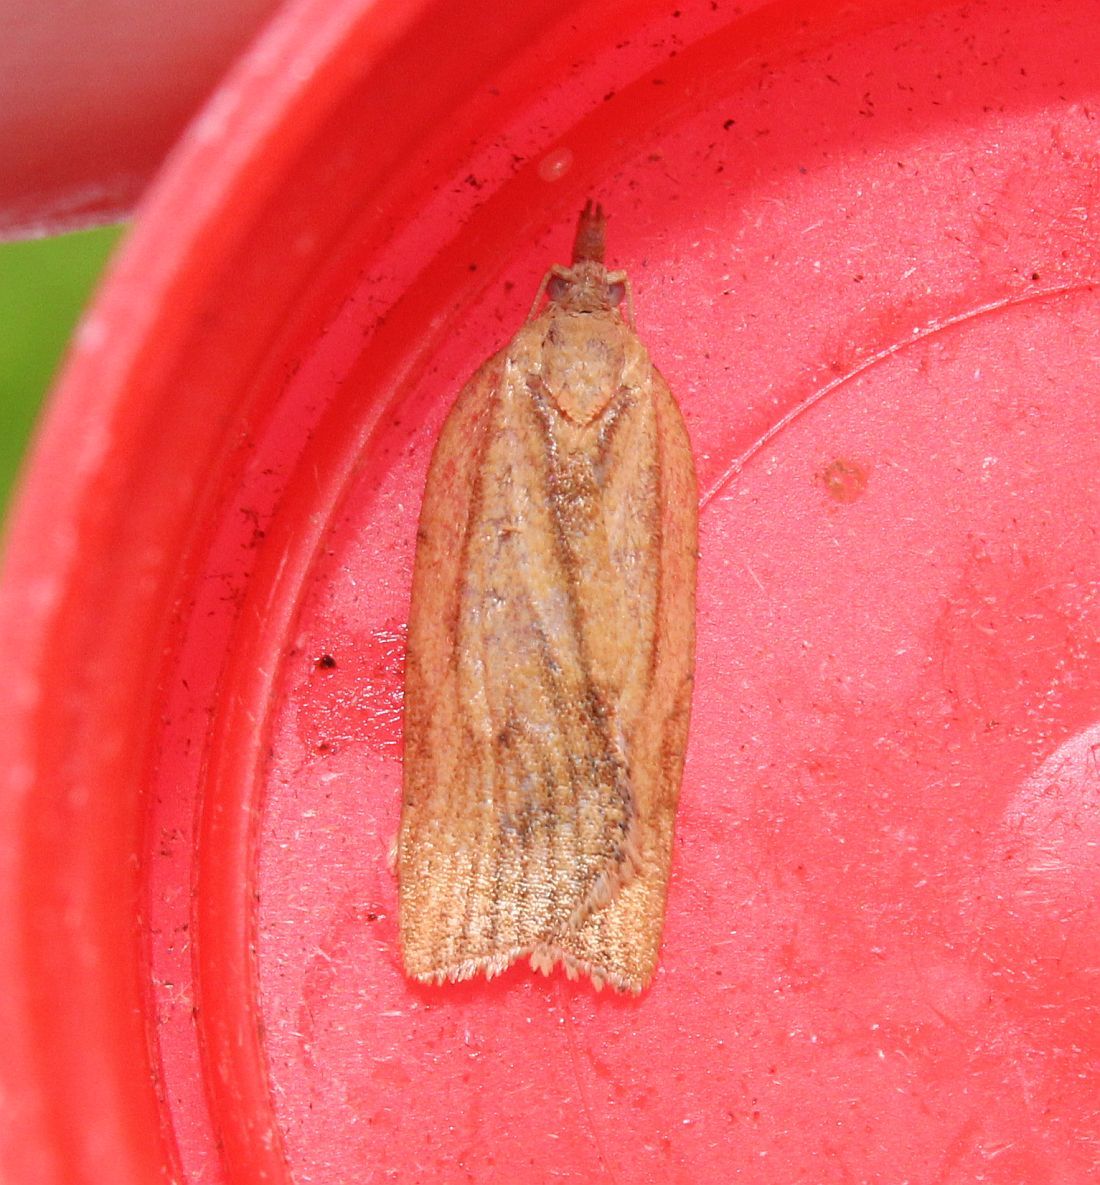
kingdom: Animalia
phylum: Arthropoda
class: Insecta
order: Lepidoptera
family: Tortricidae
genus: Epiphyas
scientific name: Epiphyas postvittana
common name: Light brown apple moth
